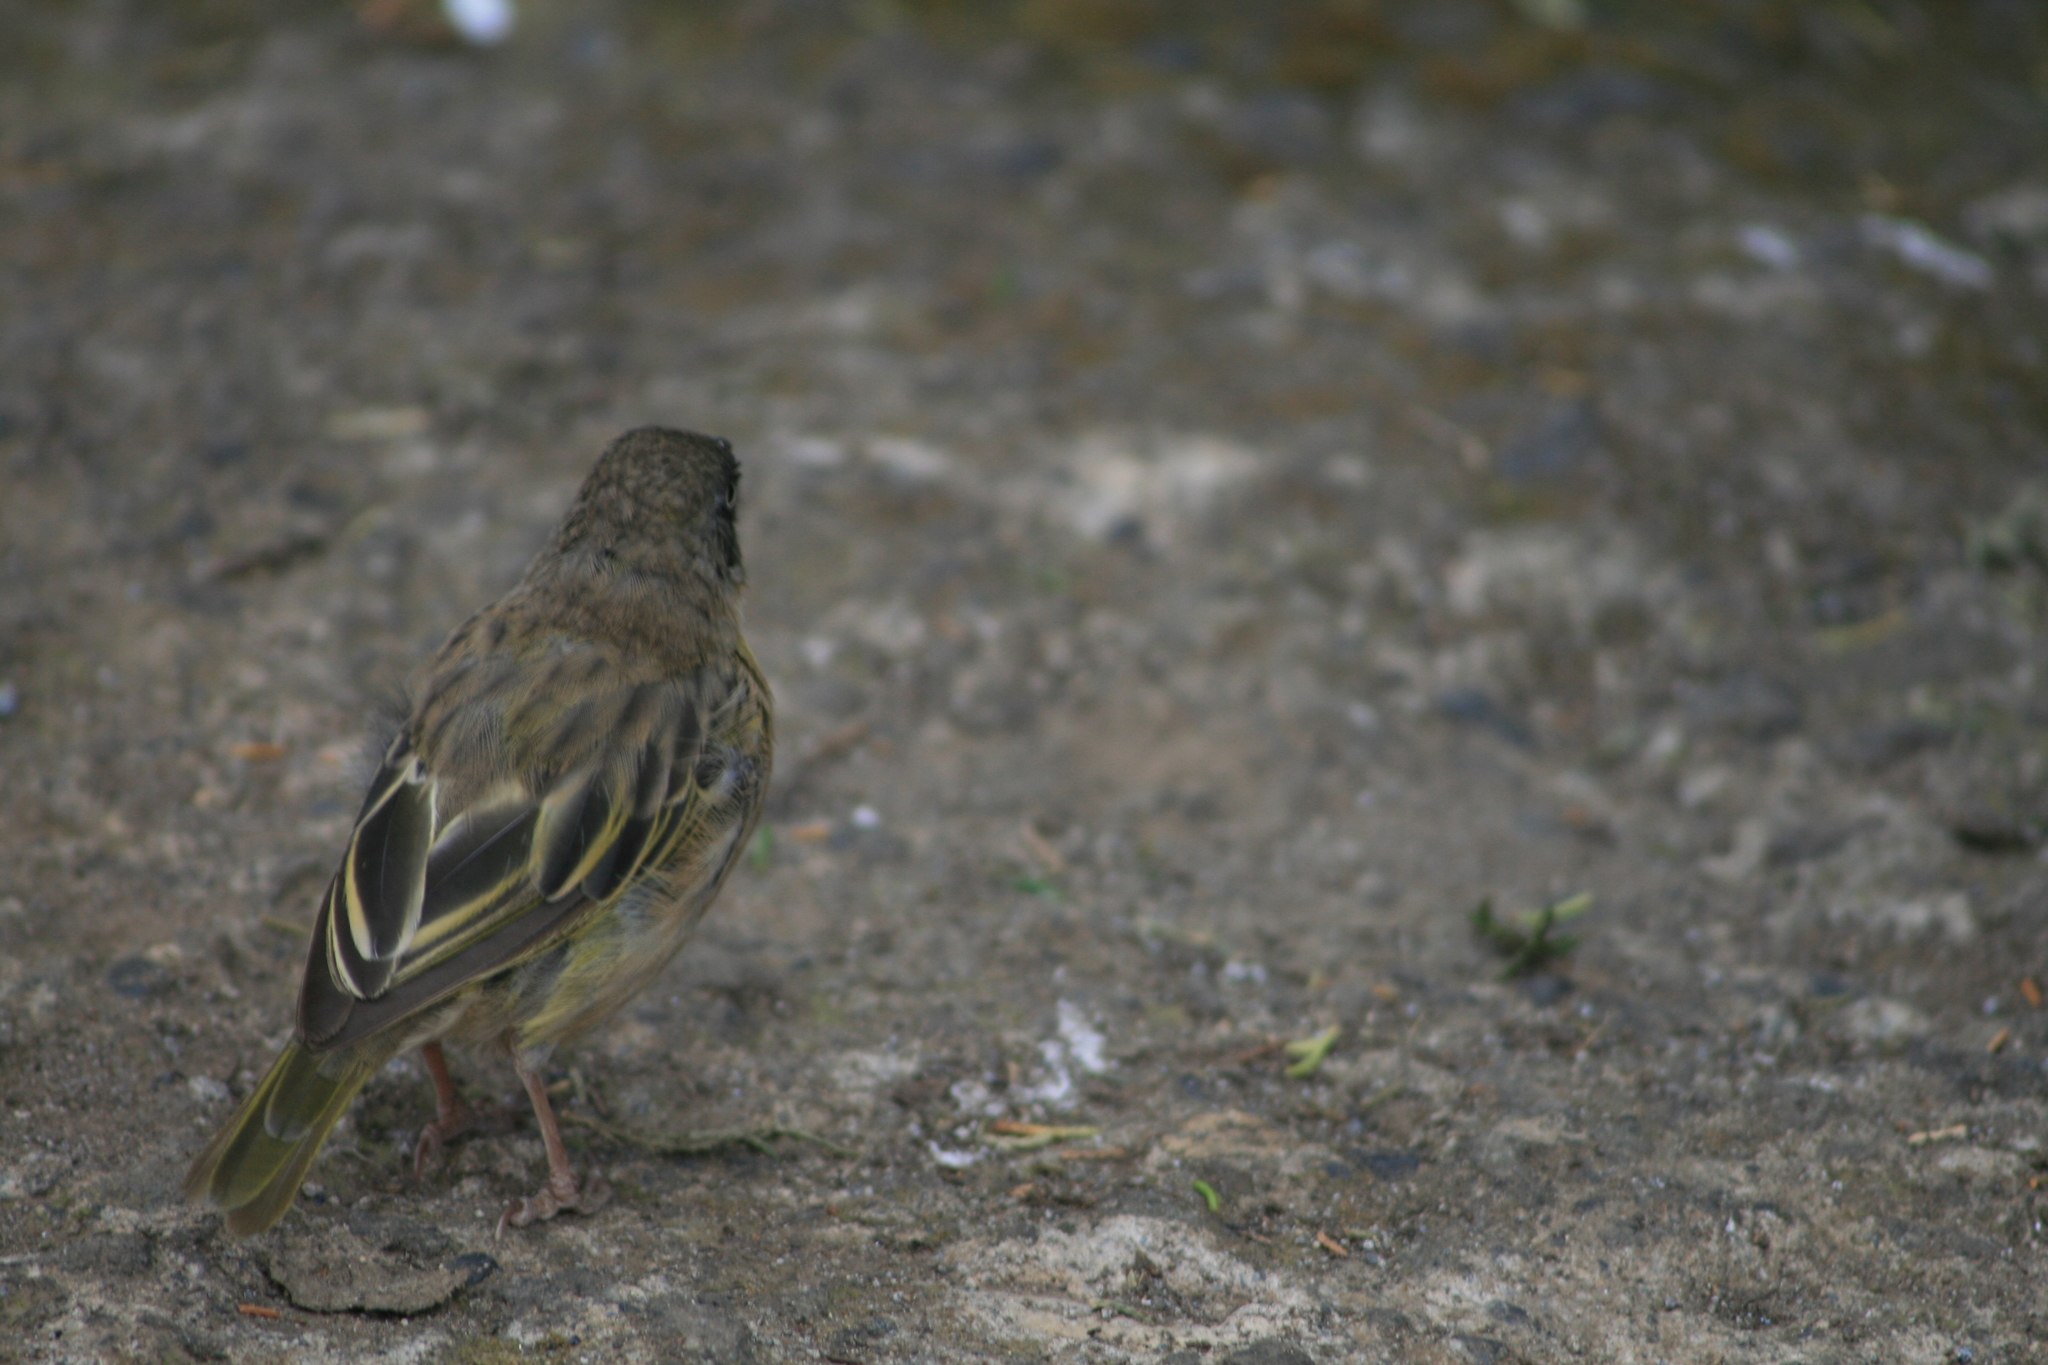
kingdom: Animalia
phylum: Chordata
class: Aves
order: Passeriformes
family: Ploceidae
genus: Ploceus
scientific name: Ploceus baglafecht
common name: Baglafecht weaver
